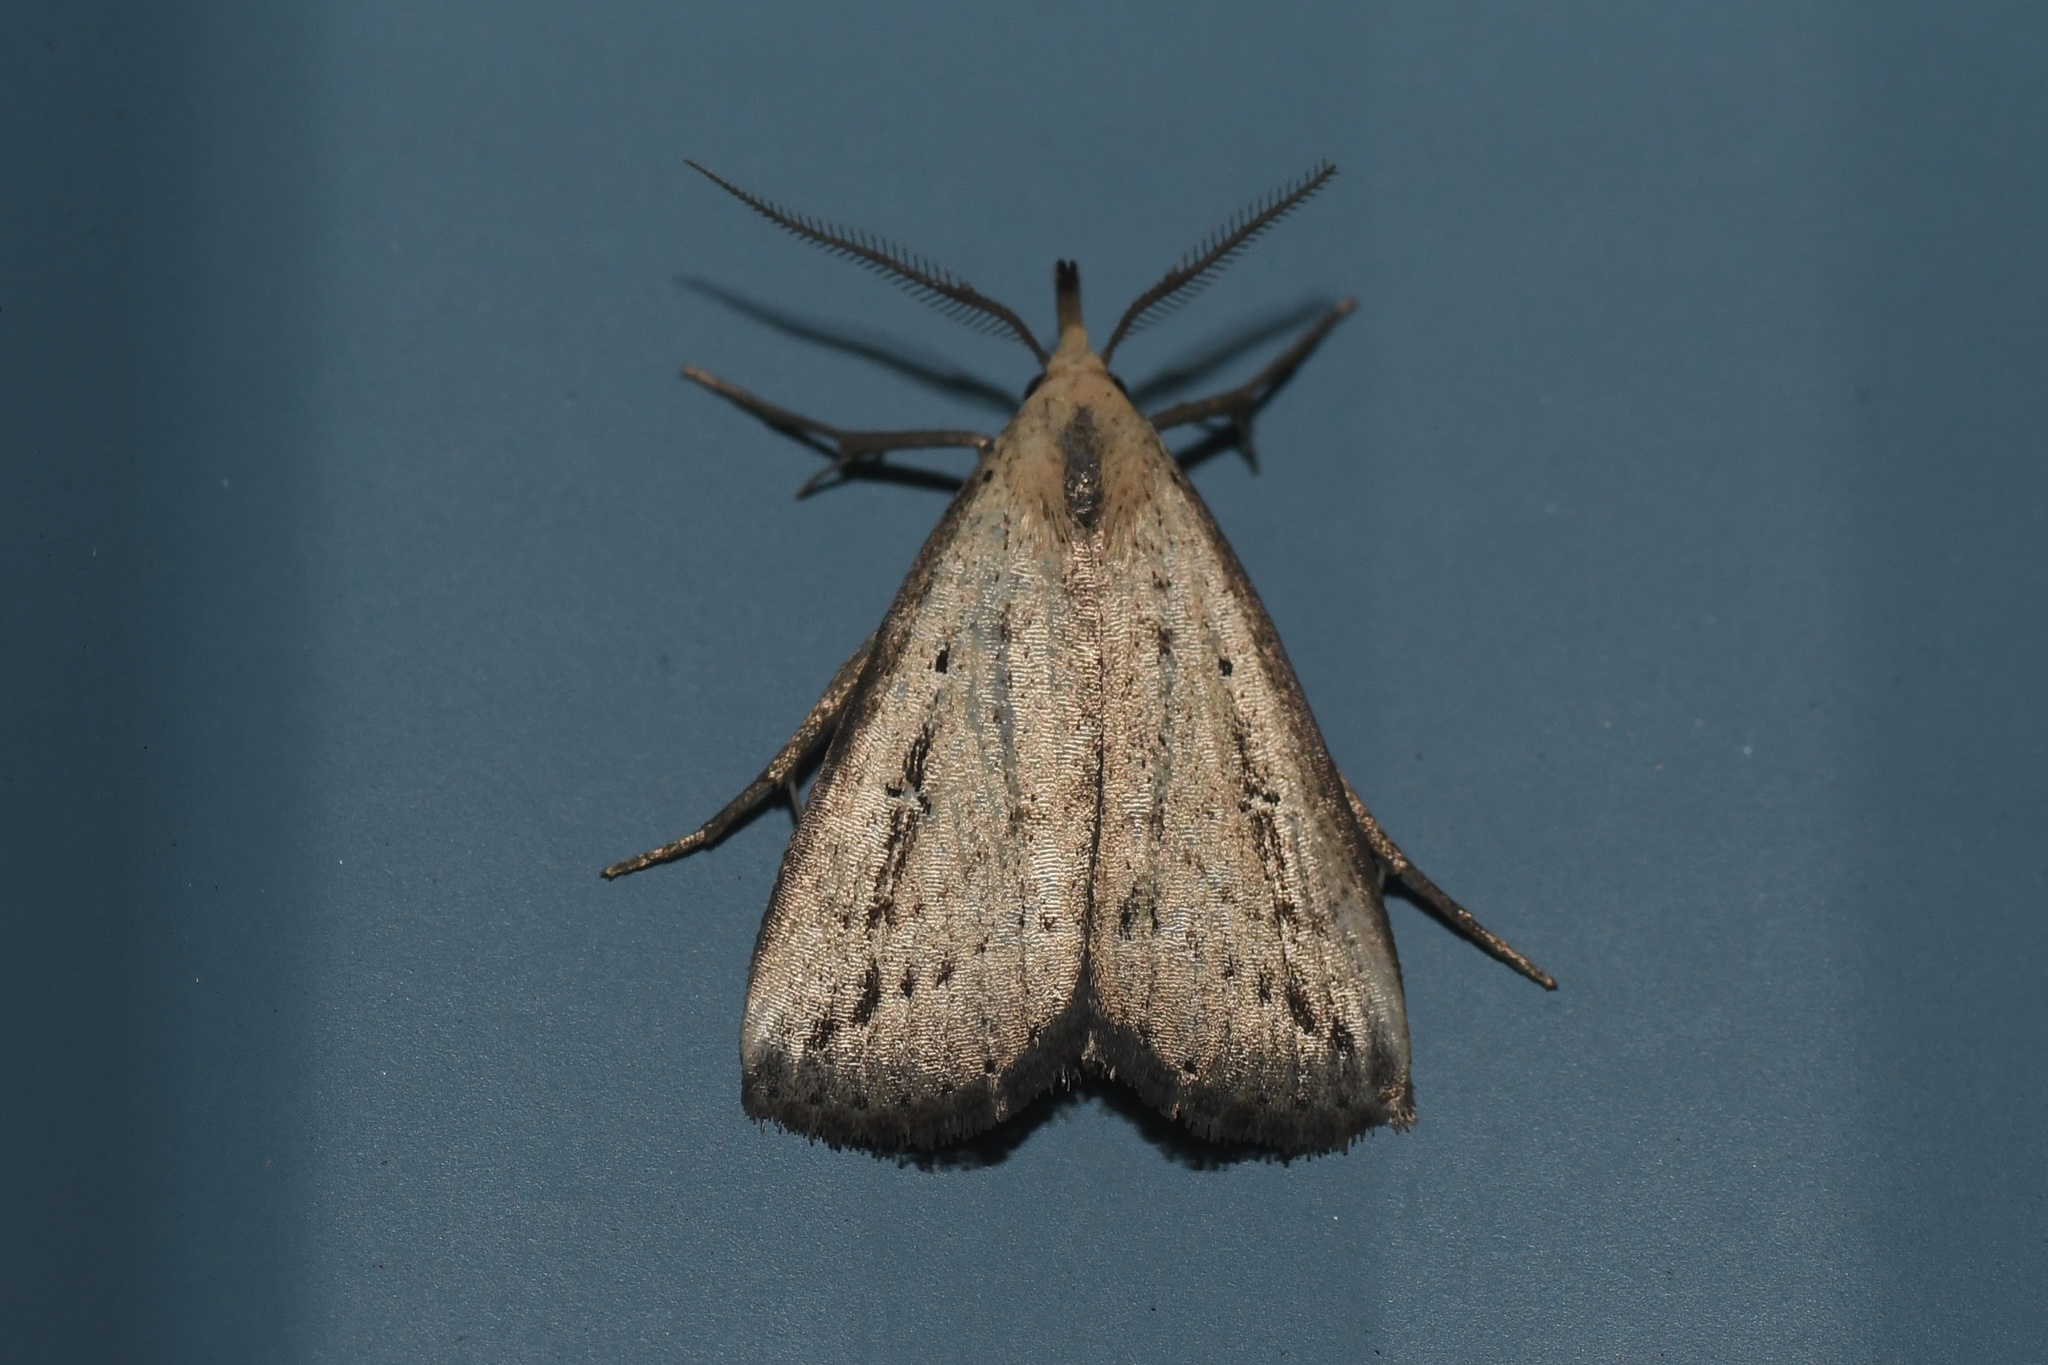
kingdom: Animalia
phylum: Arthropoda
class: Insecta
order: Lepidoptera
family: Erebidae
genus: Macrochilo
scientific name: Macrochilo orciferalis
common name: Bronzy owlet
